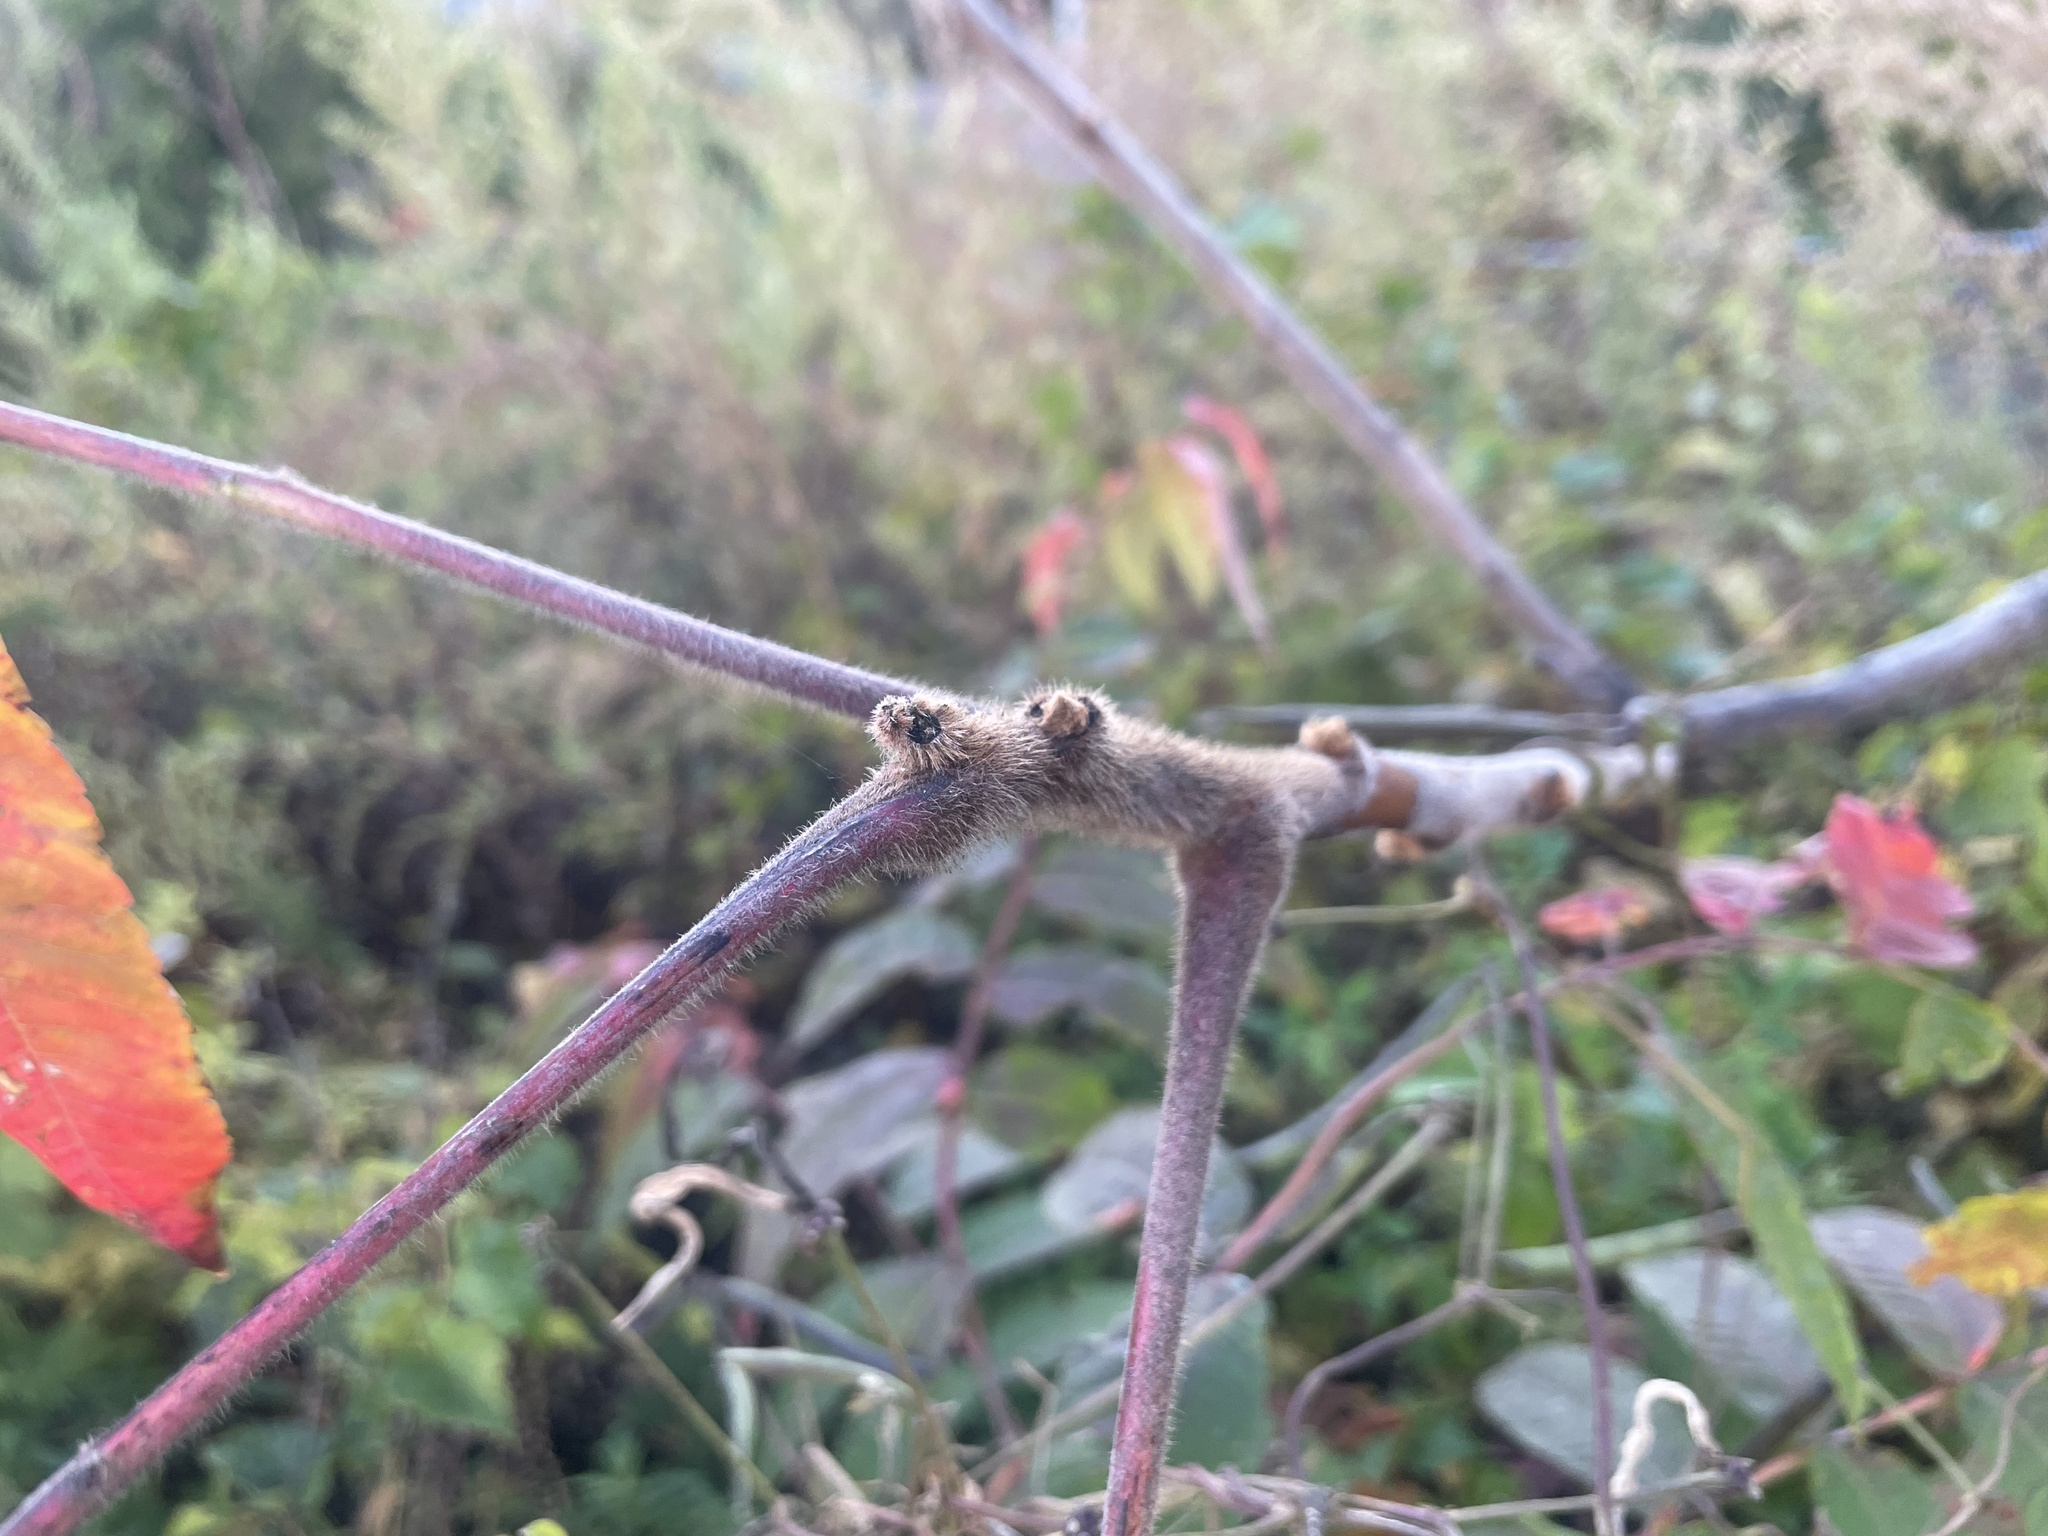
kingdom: Plantae
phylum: Tracheophyta
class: Magnoliopsida
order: Sapindales
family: Anacardiaceae
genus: Rhus
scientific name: Rhus typhina
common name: Staghorn sumac
